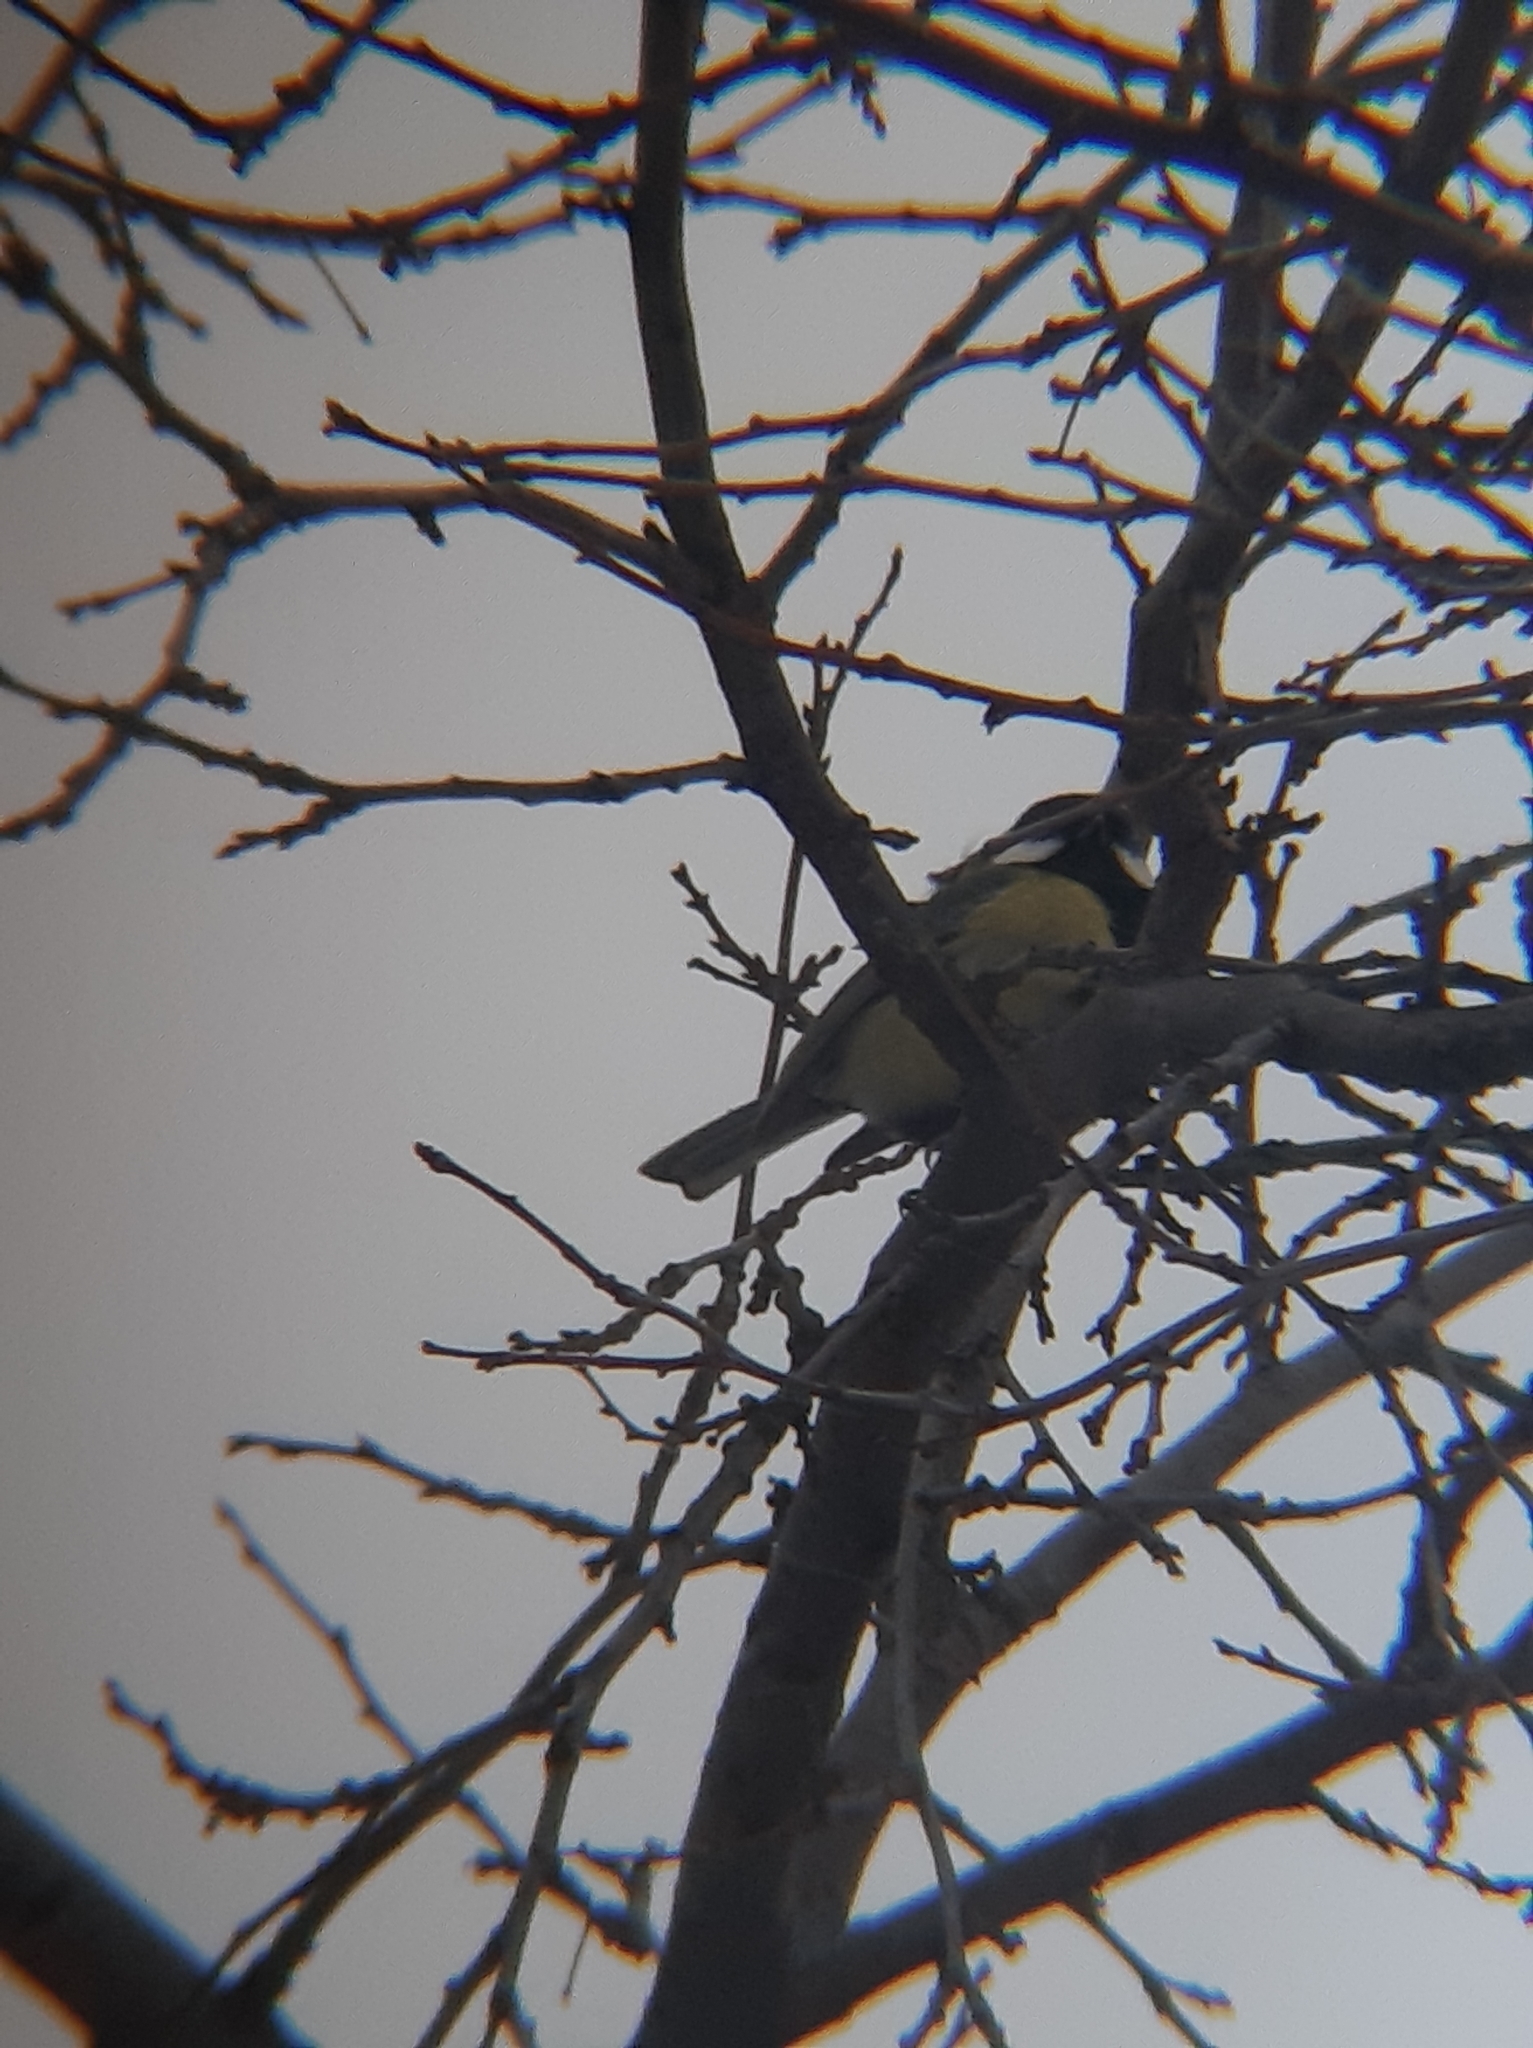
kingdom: Animalia
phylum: Chordata
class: Aves
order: Passeriformes
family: Paridae
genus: Parus
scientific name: Parus major
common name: Great tit
